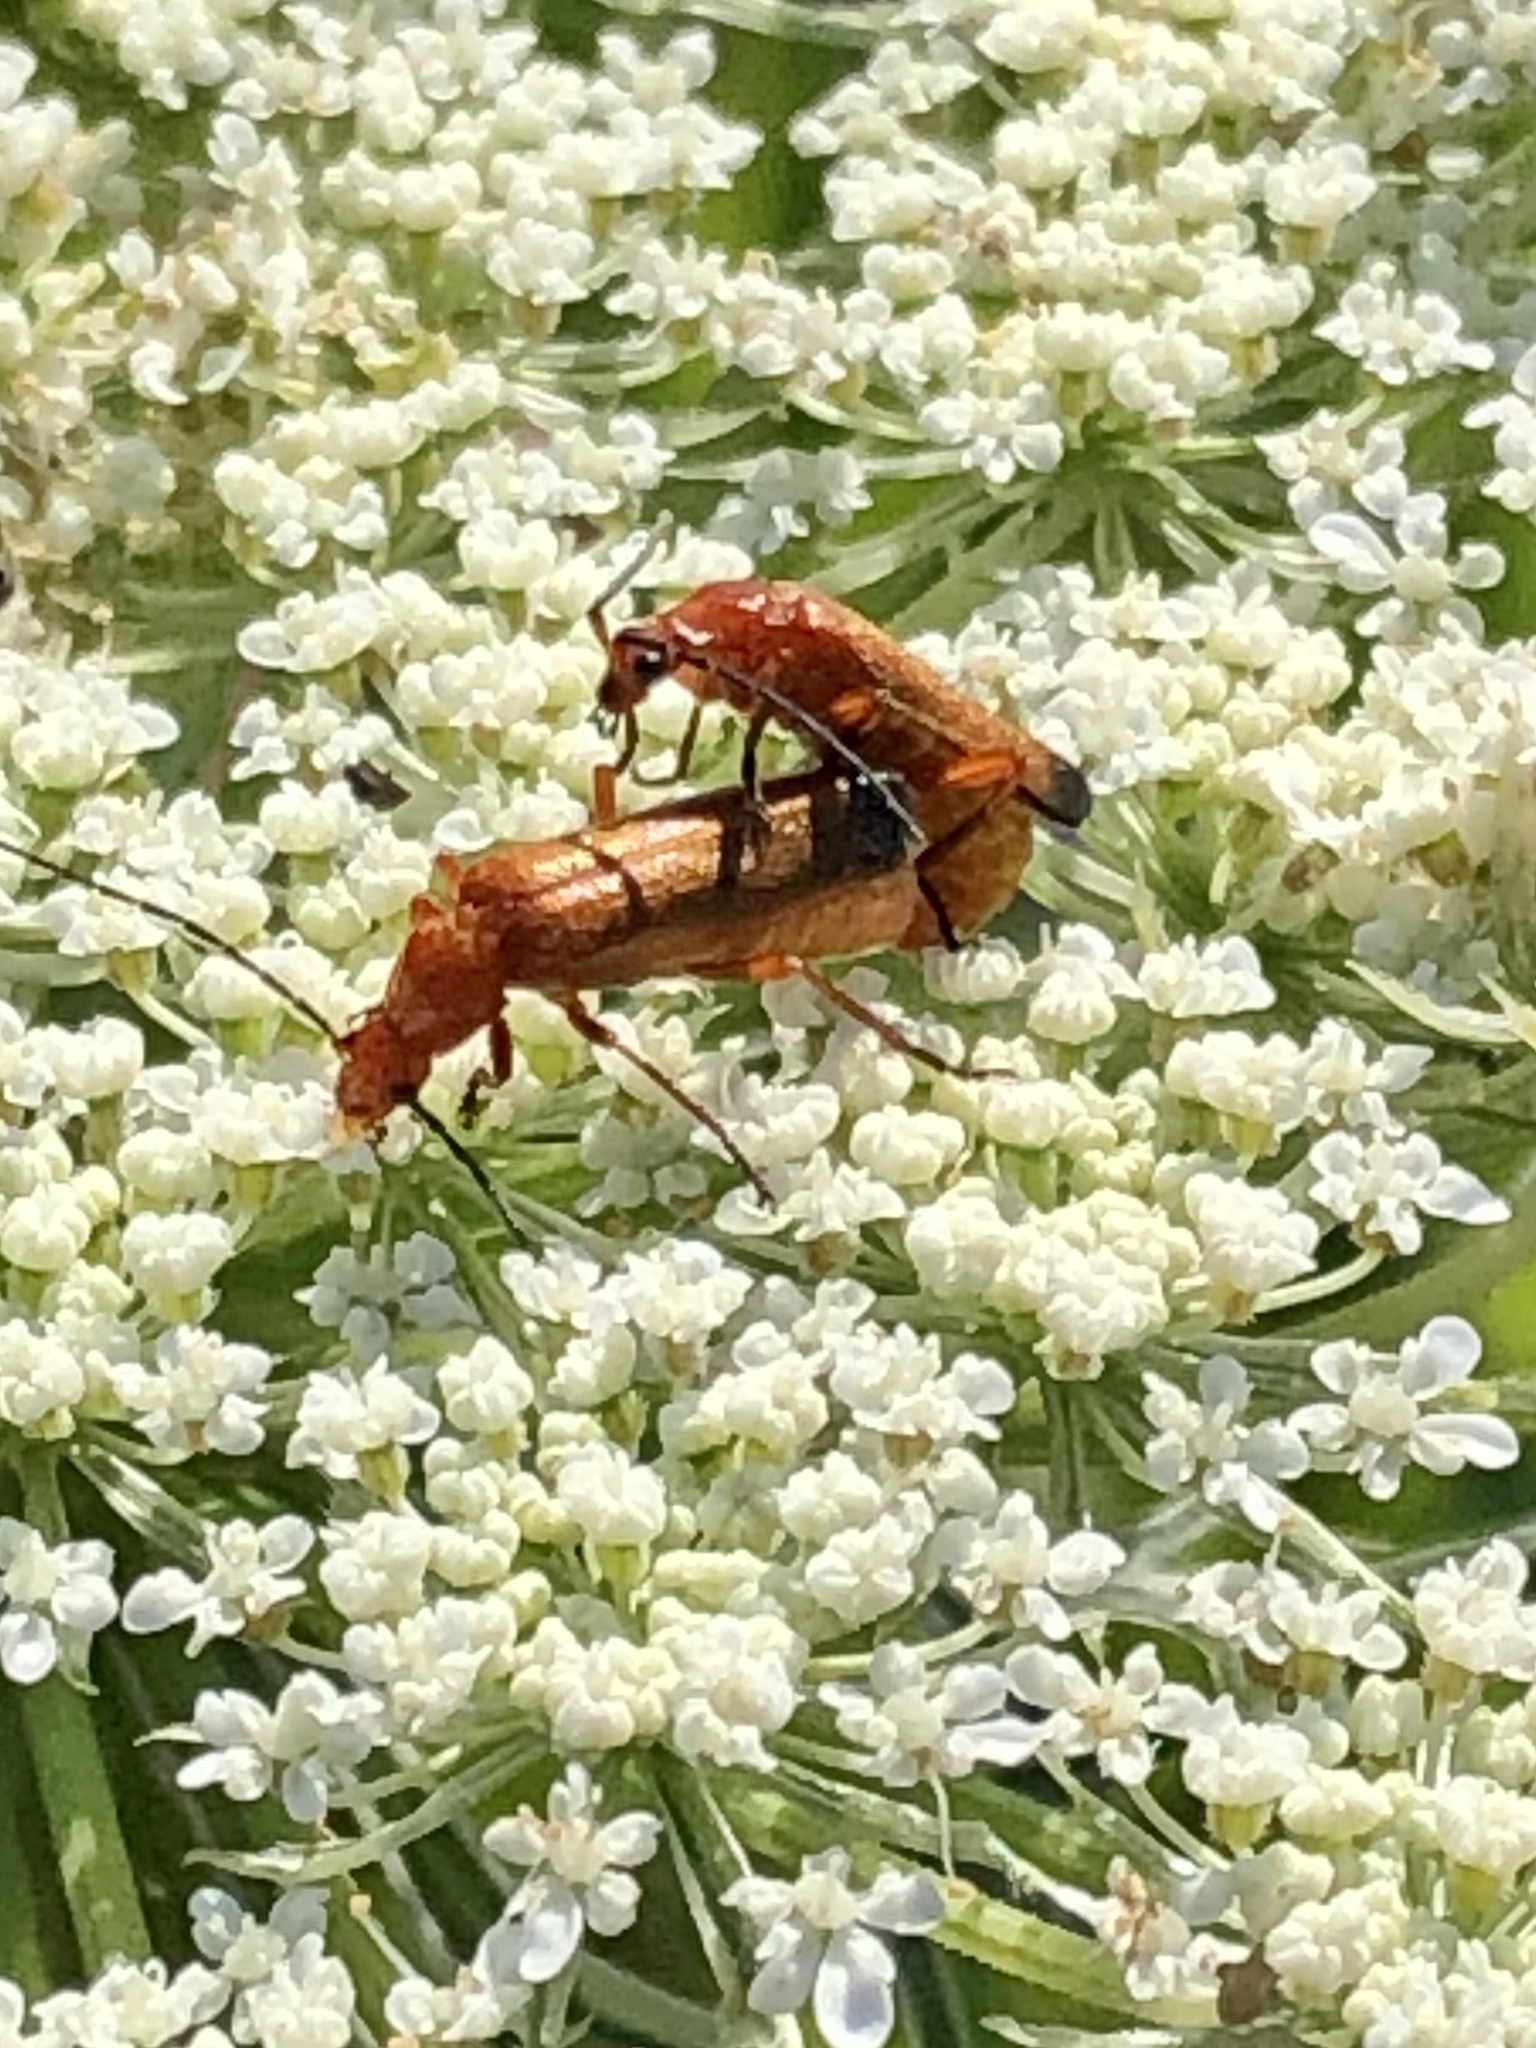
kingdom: Animalia
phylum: Arthropoda
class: Insecta
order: Coleoptera
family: Cantharidae
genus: Rhagonycha
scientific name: Rhagonycha fulva
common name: Common red soldier beetle
